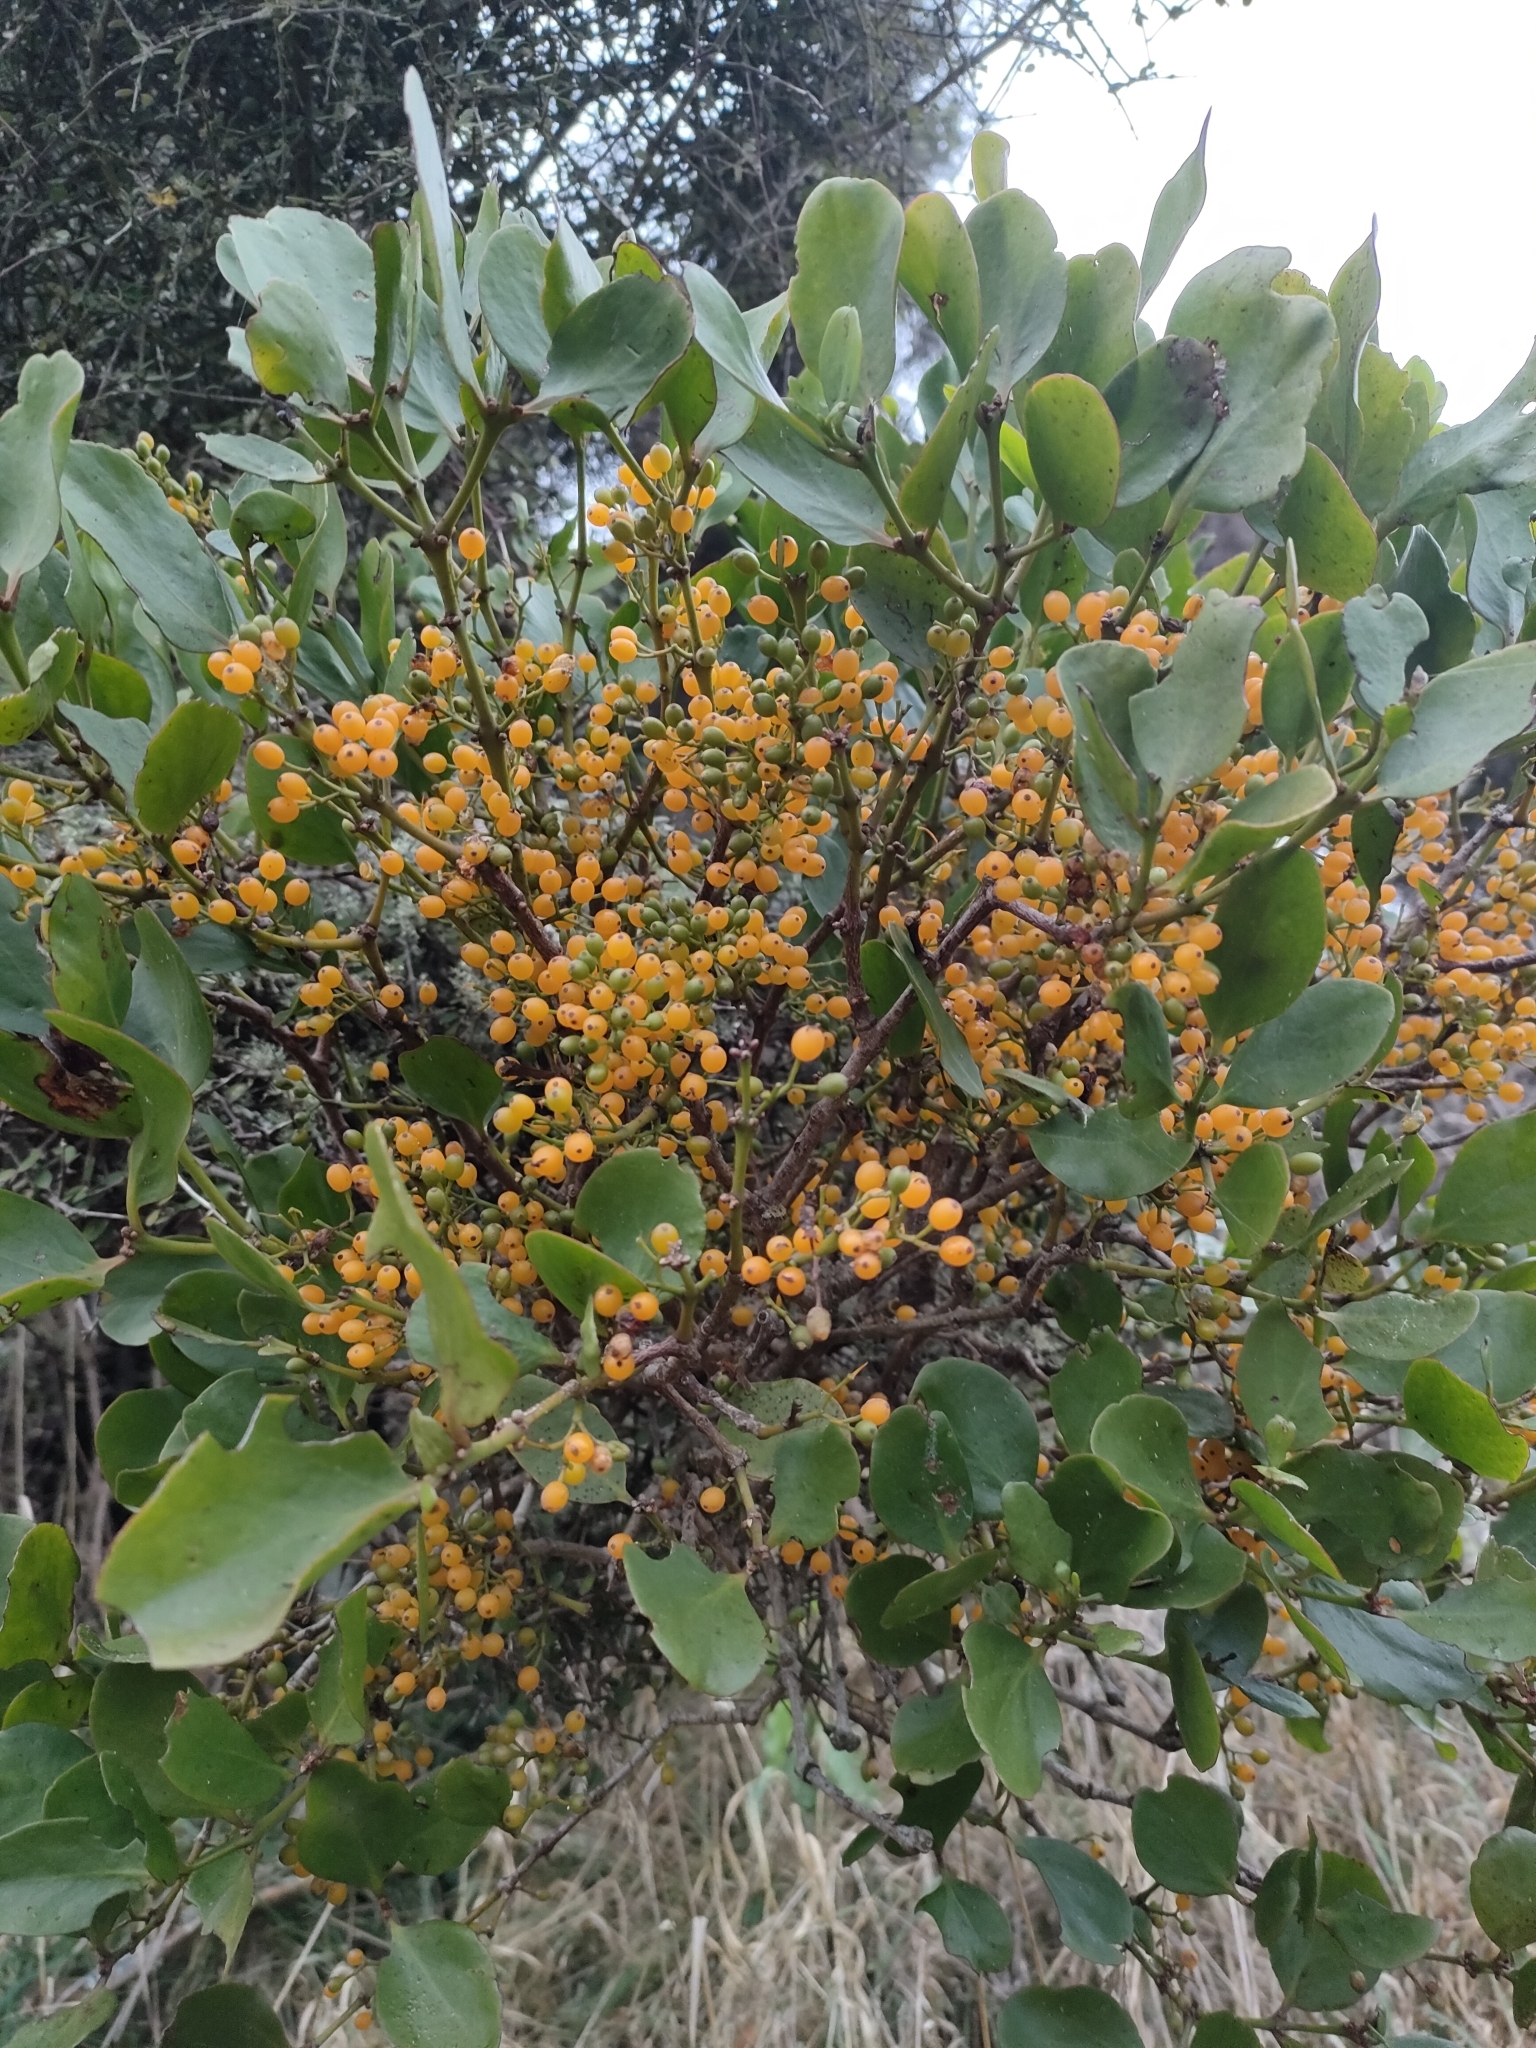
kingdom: Plantae
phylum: Tracheophyta
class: Magnoliopsida
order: Santalales
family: Loranthaceae
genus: Ileostylus
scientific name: Ileostylus micranthus
